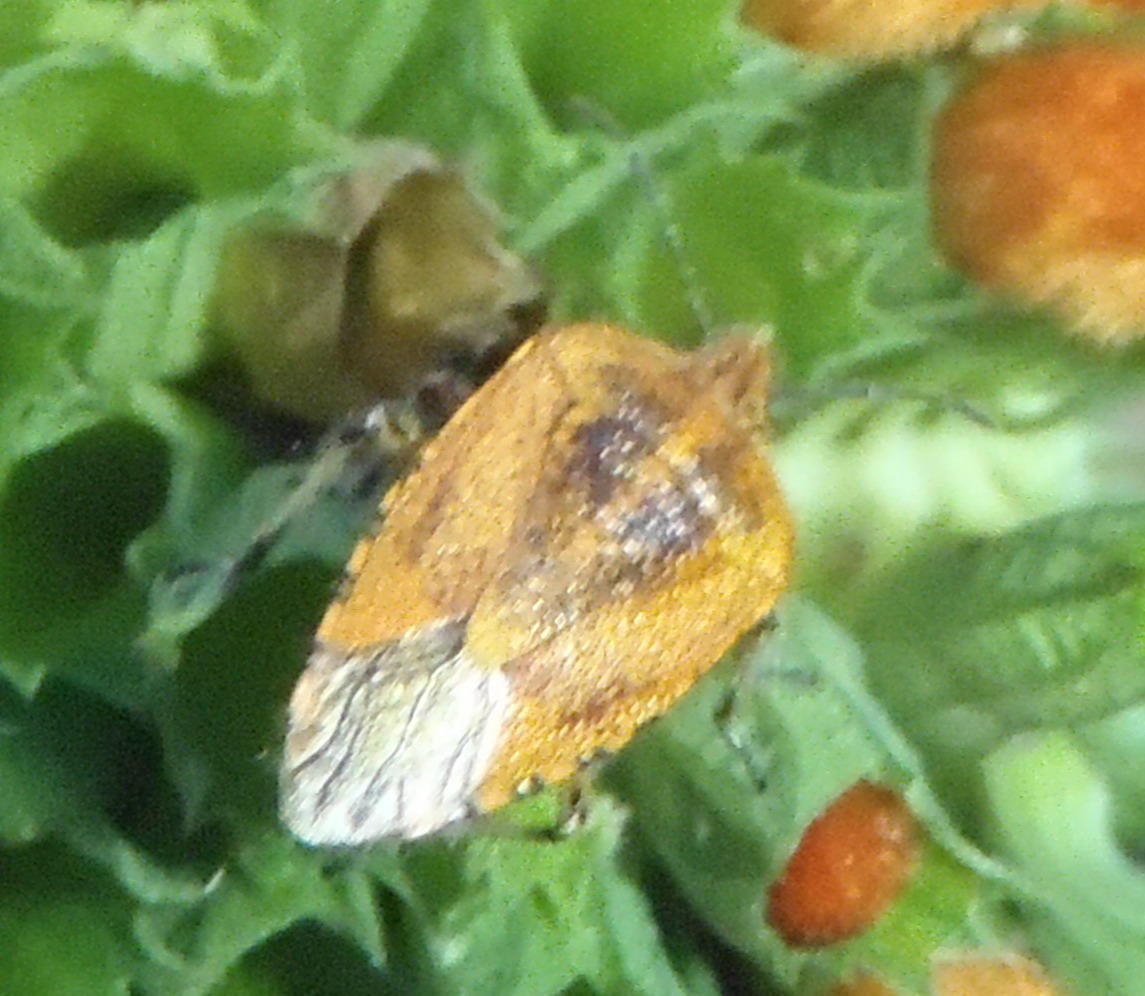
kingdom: Animalia
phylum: Arthropoda
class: Insecta
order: Hemiptera
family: Pentatomidae
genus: Agonoscelis
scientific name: Agonoscelis
